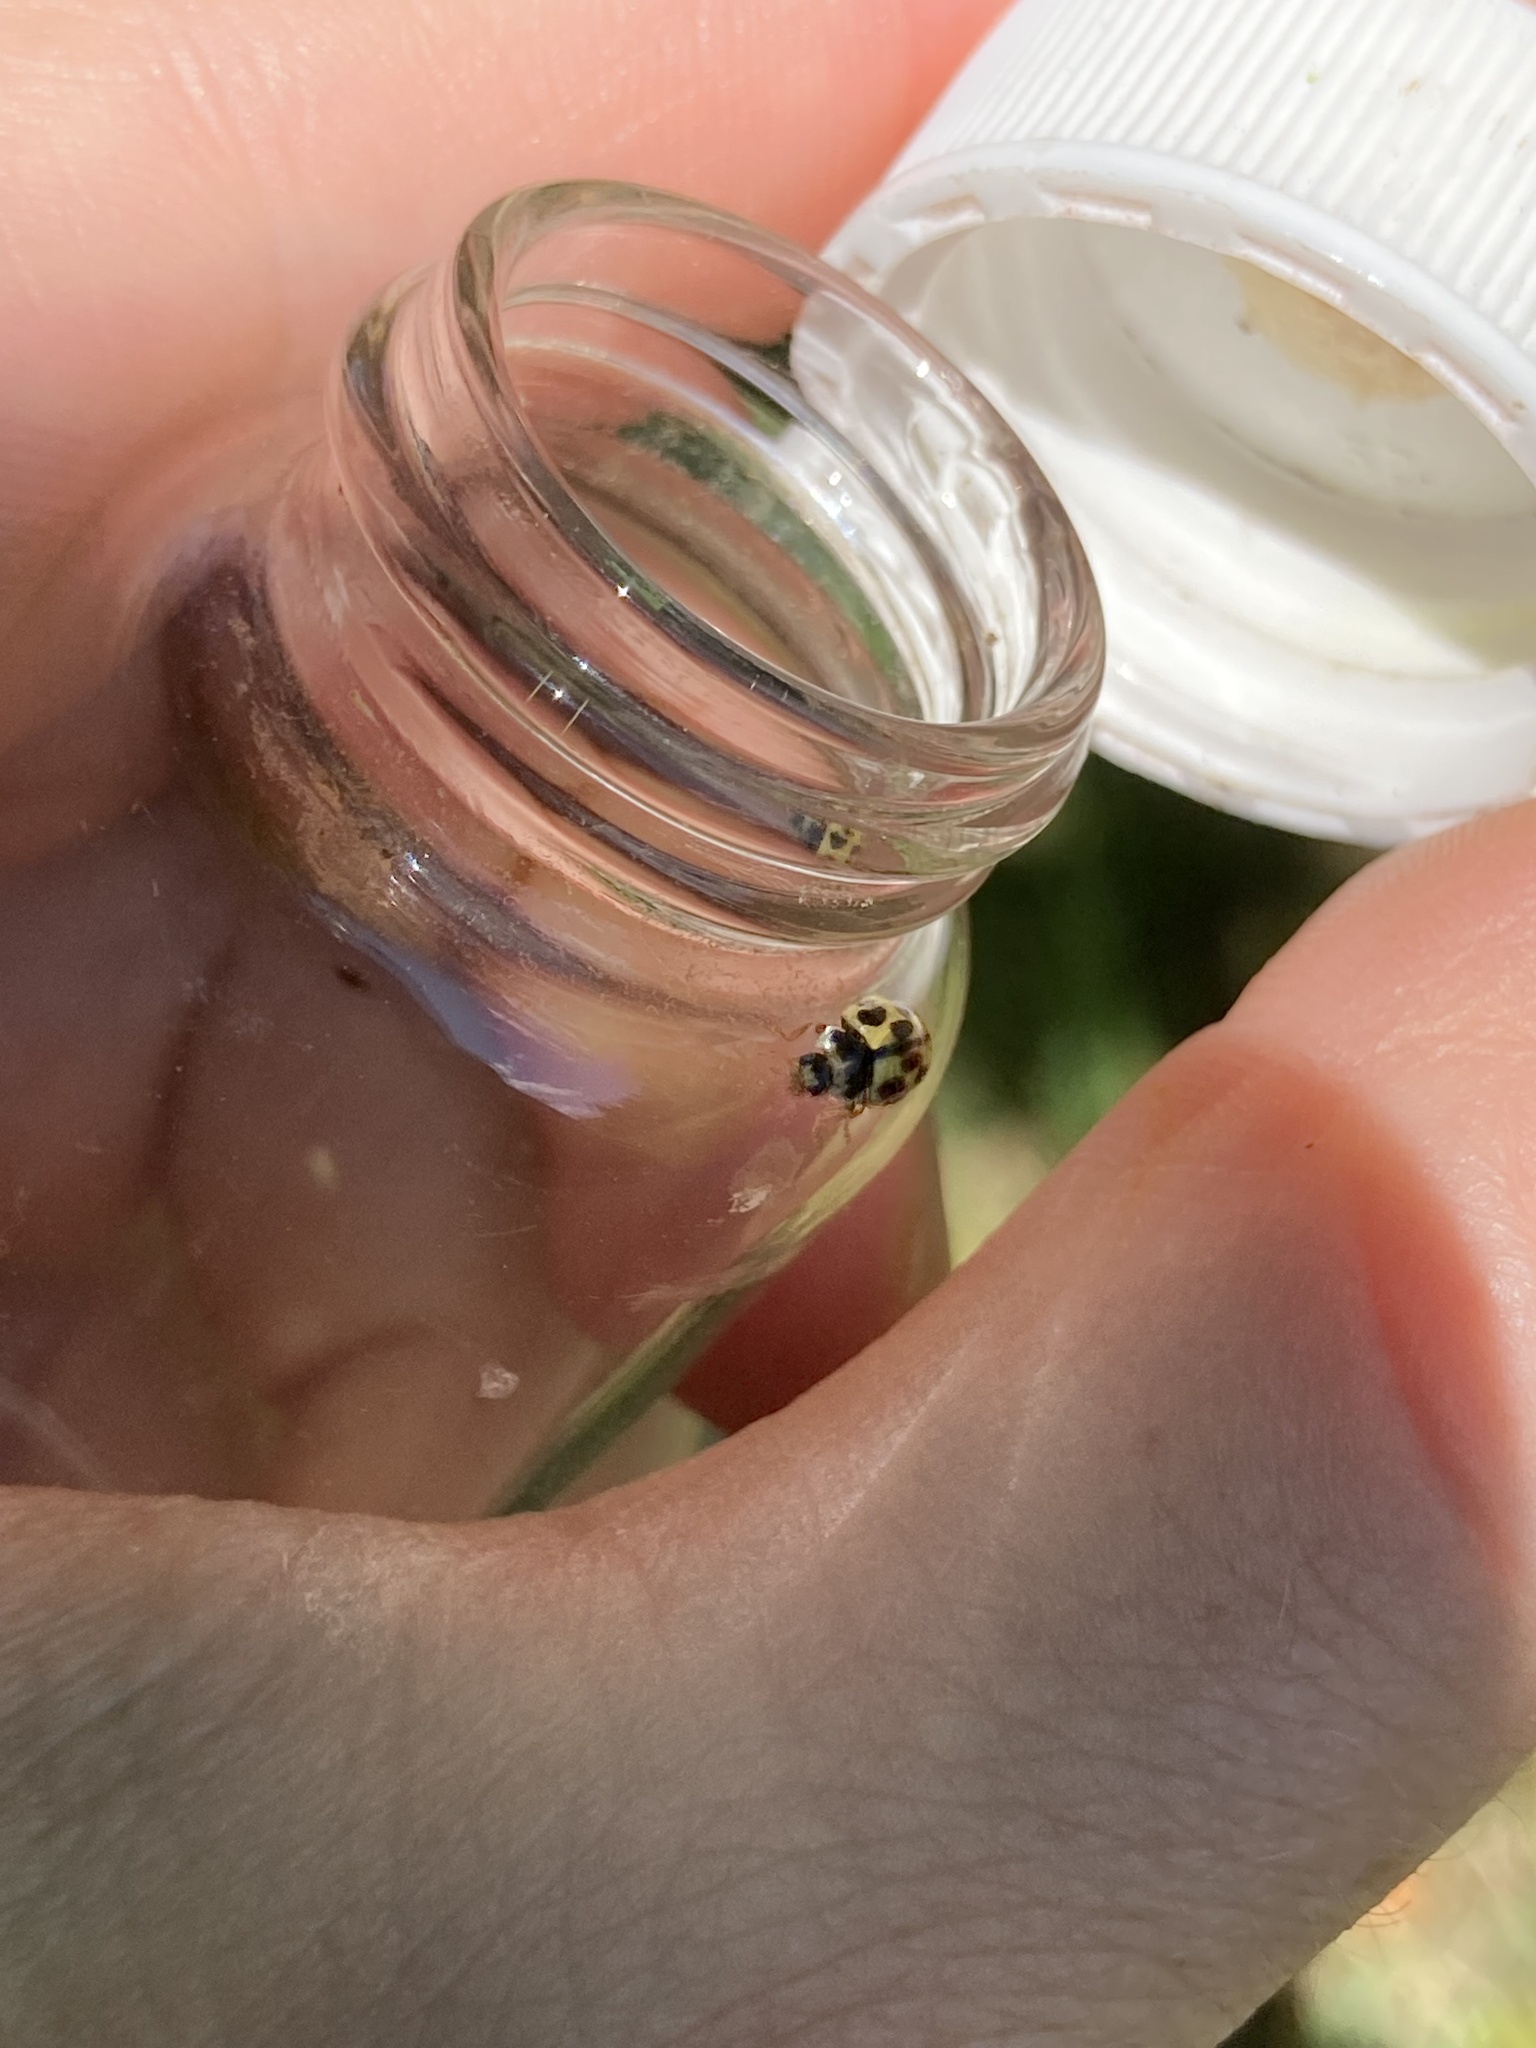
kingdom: Animalia
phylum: Arthropoda
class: Insecta
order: Coleoptera
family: Coccinellidae
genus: Propylaea
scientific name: Propylaea quatuordecimpunctata
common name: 14-spotted ladybird beetle
